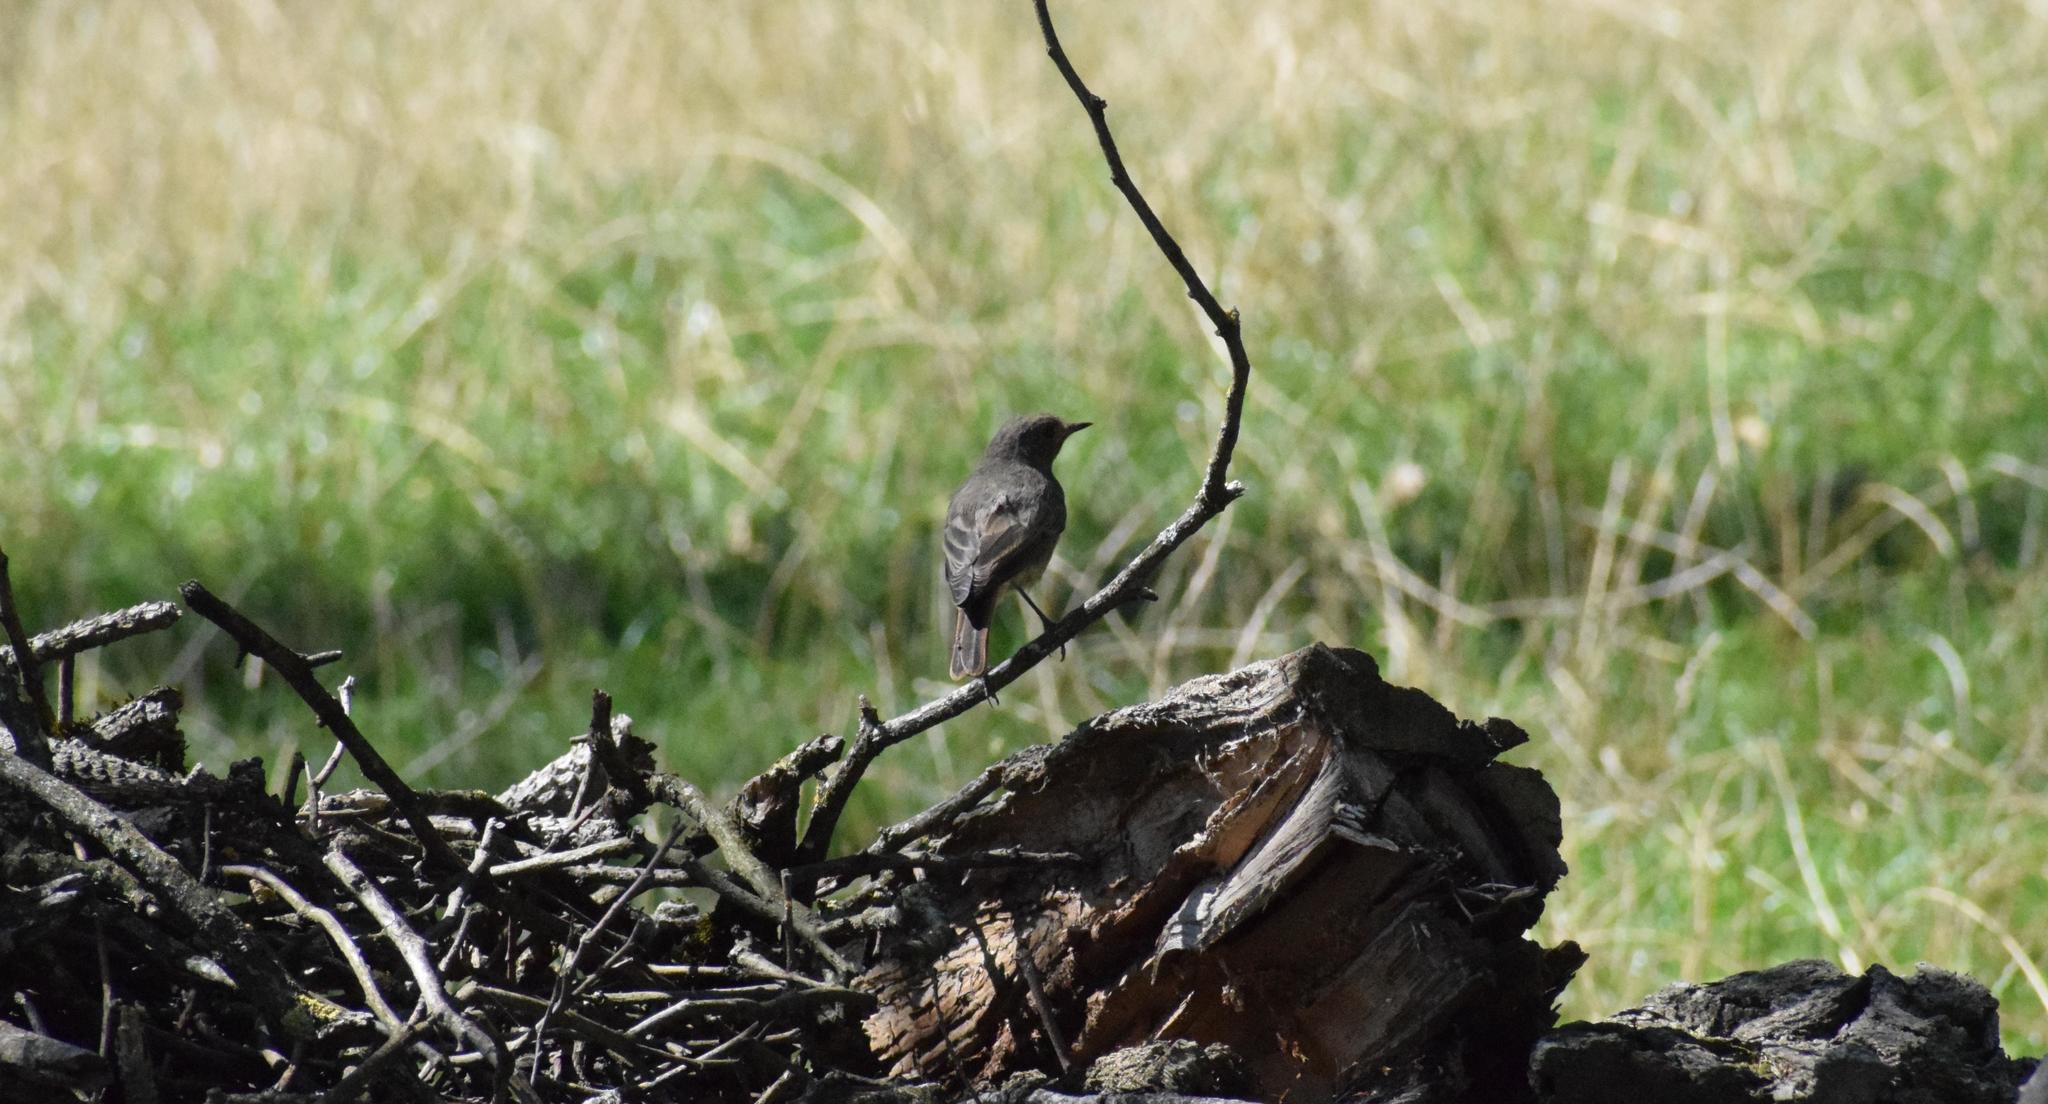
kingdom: Animalia
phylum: Chordata
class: Aves
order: Passeriformes
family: Muscicapidae
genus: Phoenicurus
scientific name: Phoenicurus ochruros
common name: Black redstart
